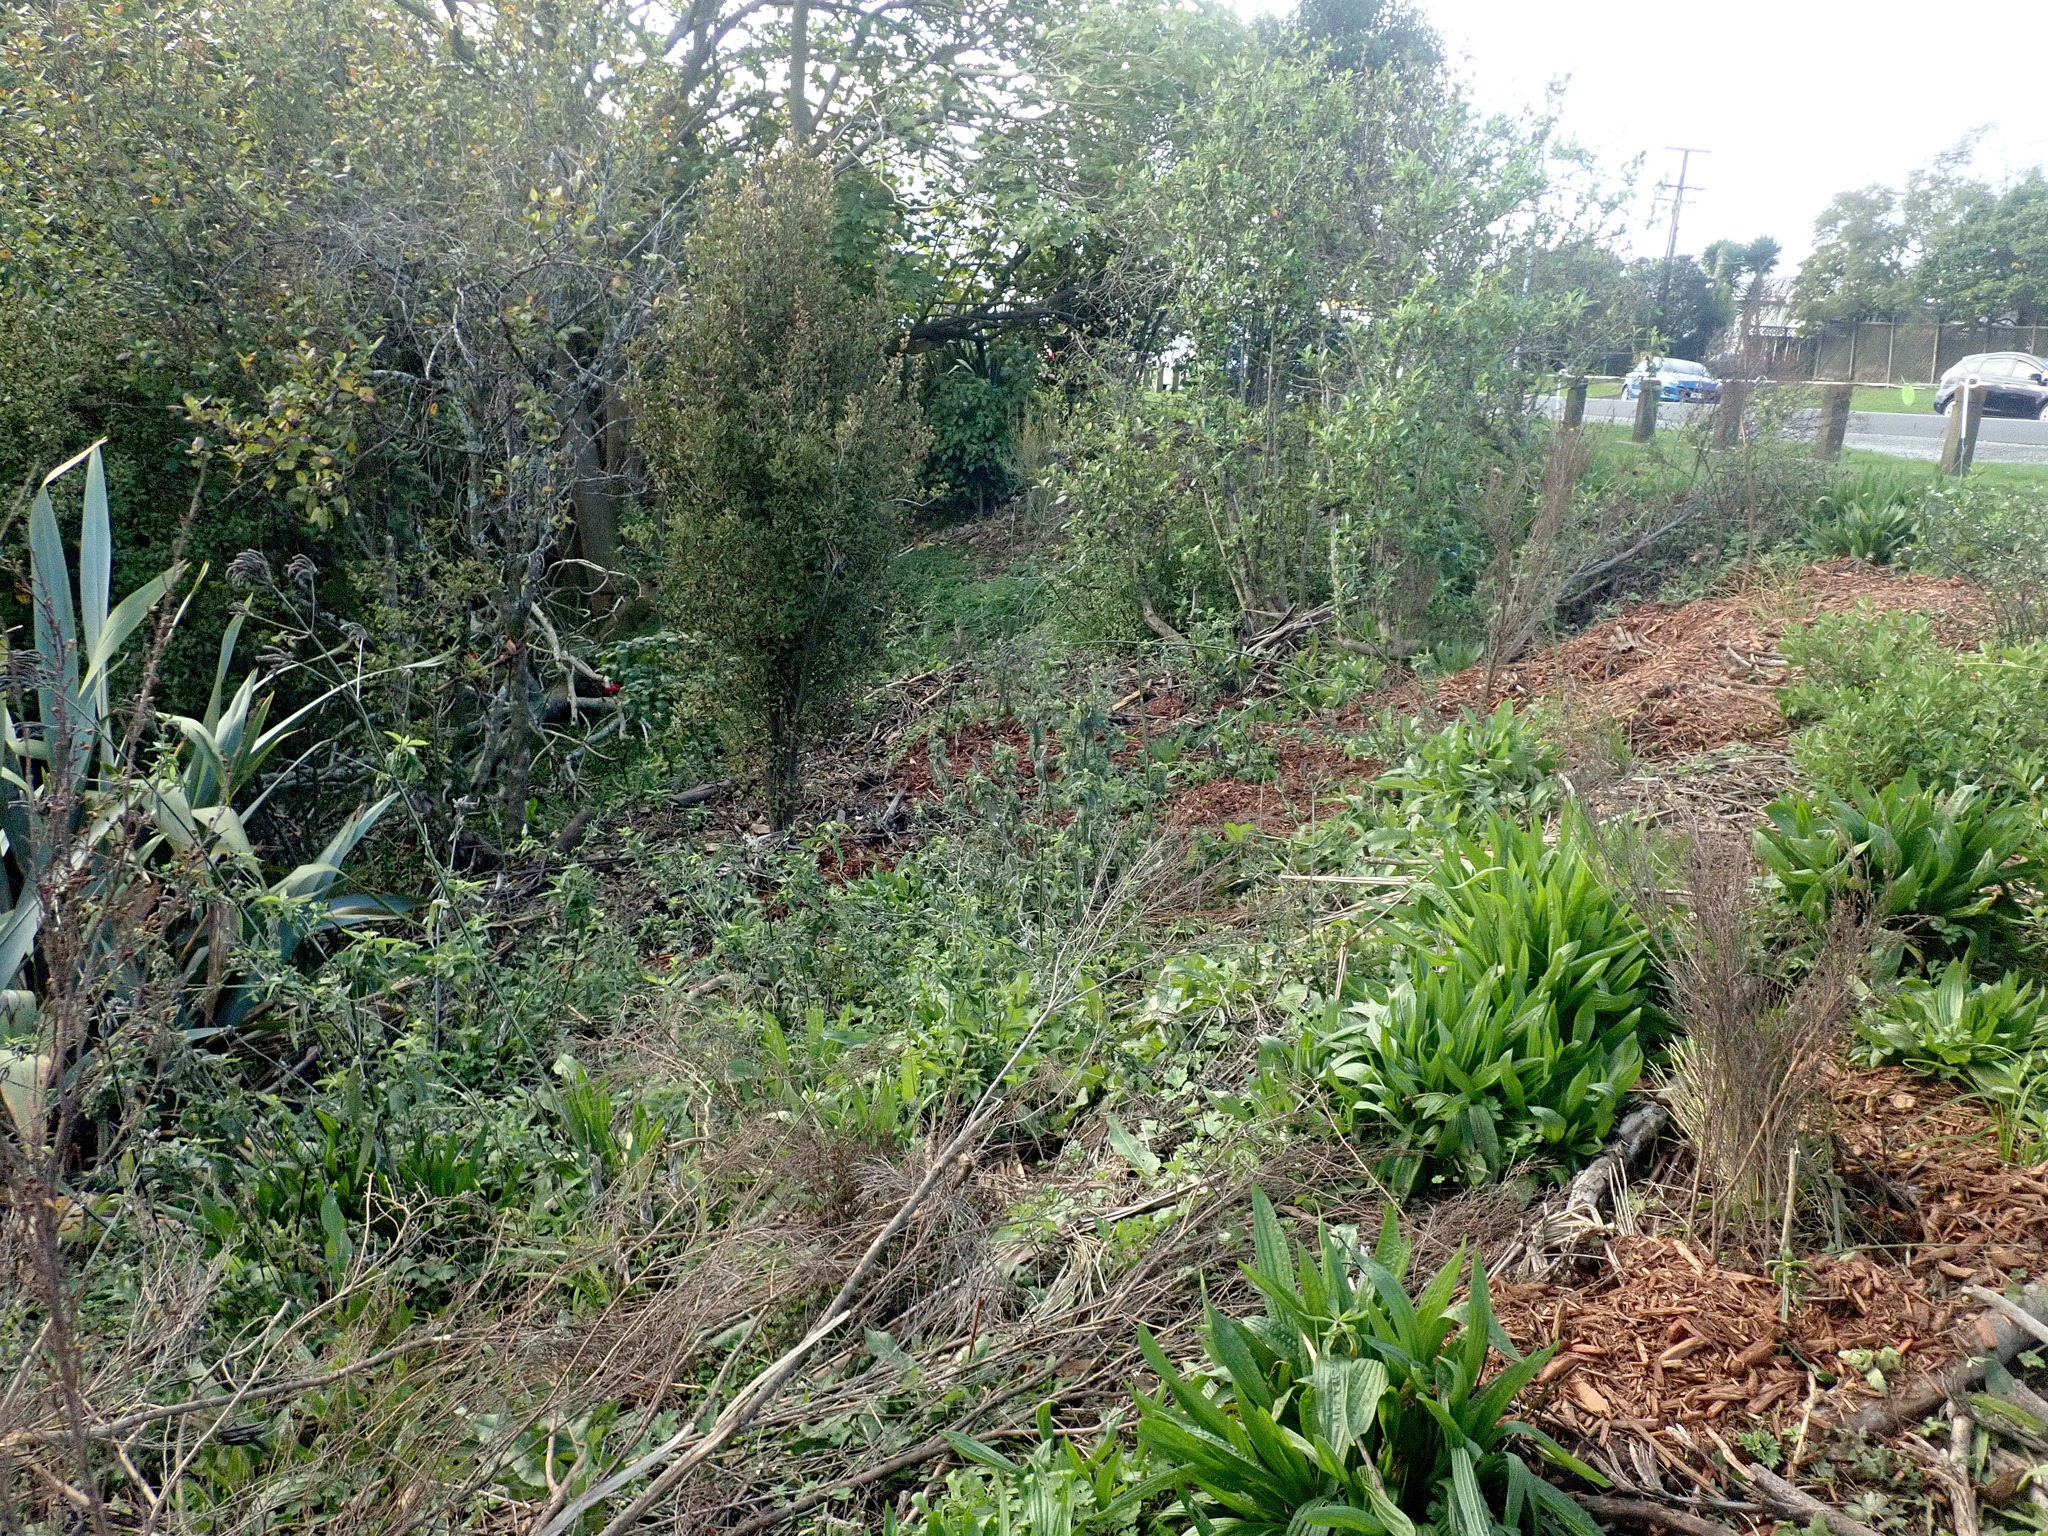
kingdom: Plantae
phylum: Tracheophyta
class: Magnoliopsida
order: Lamiales
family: Plantaginaceae
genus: Plantago
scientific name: Plantago lanceolata
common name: Ribwort plantain
